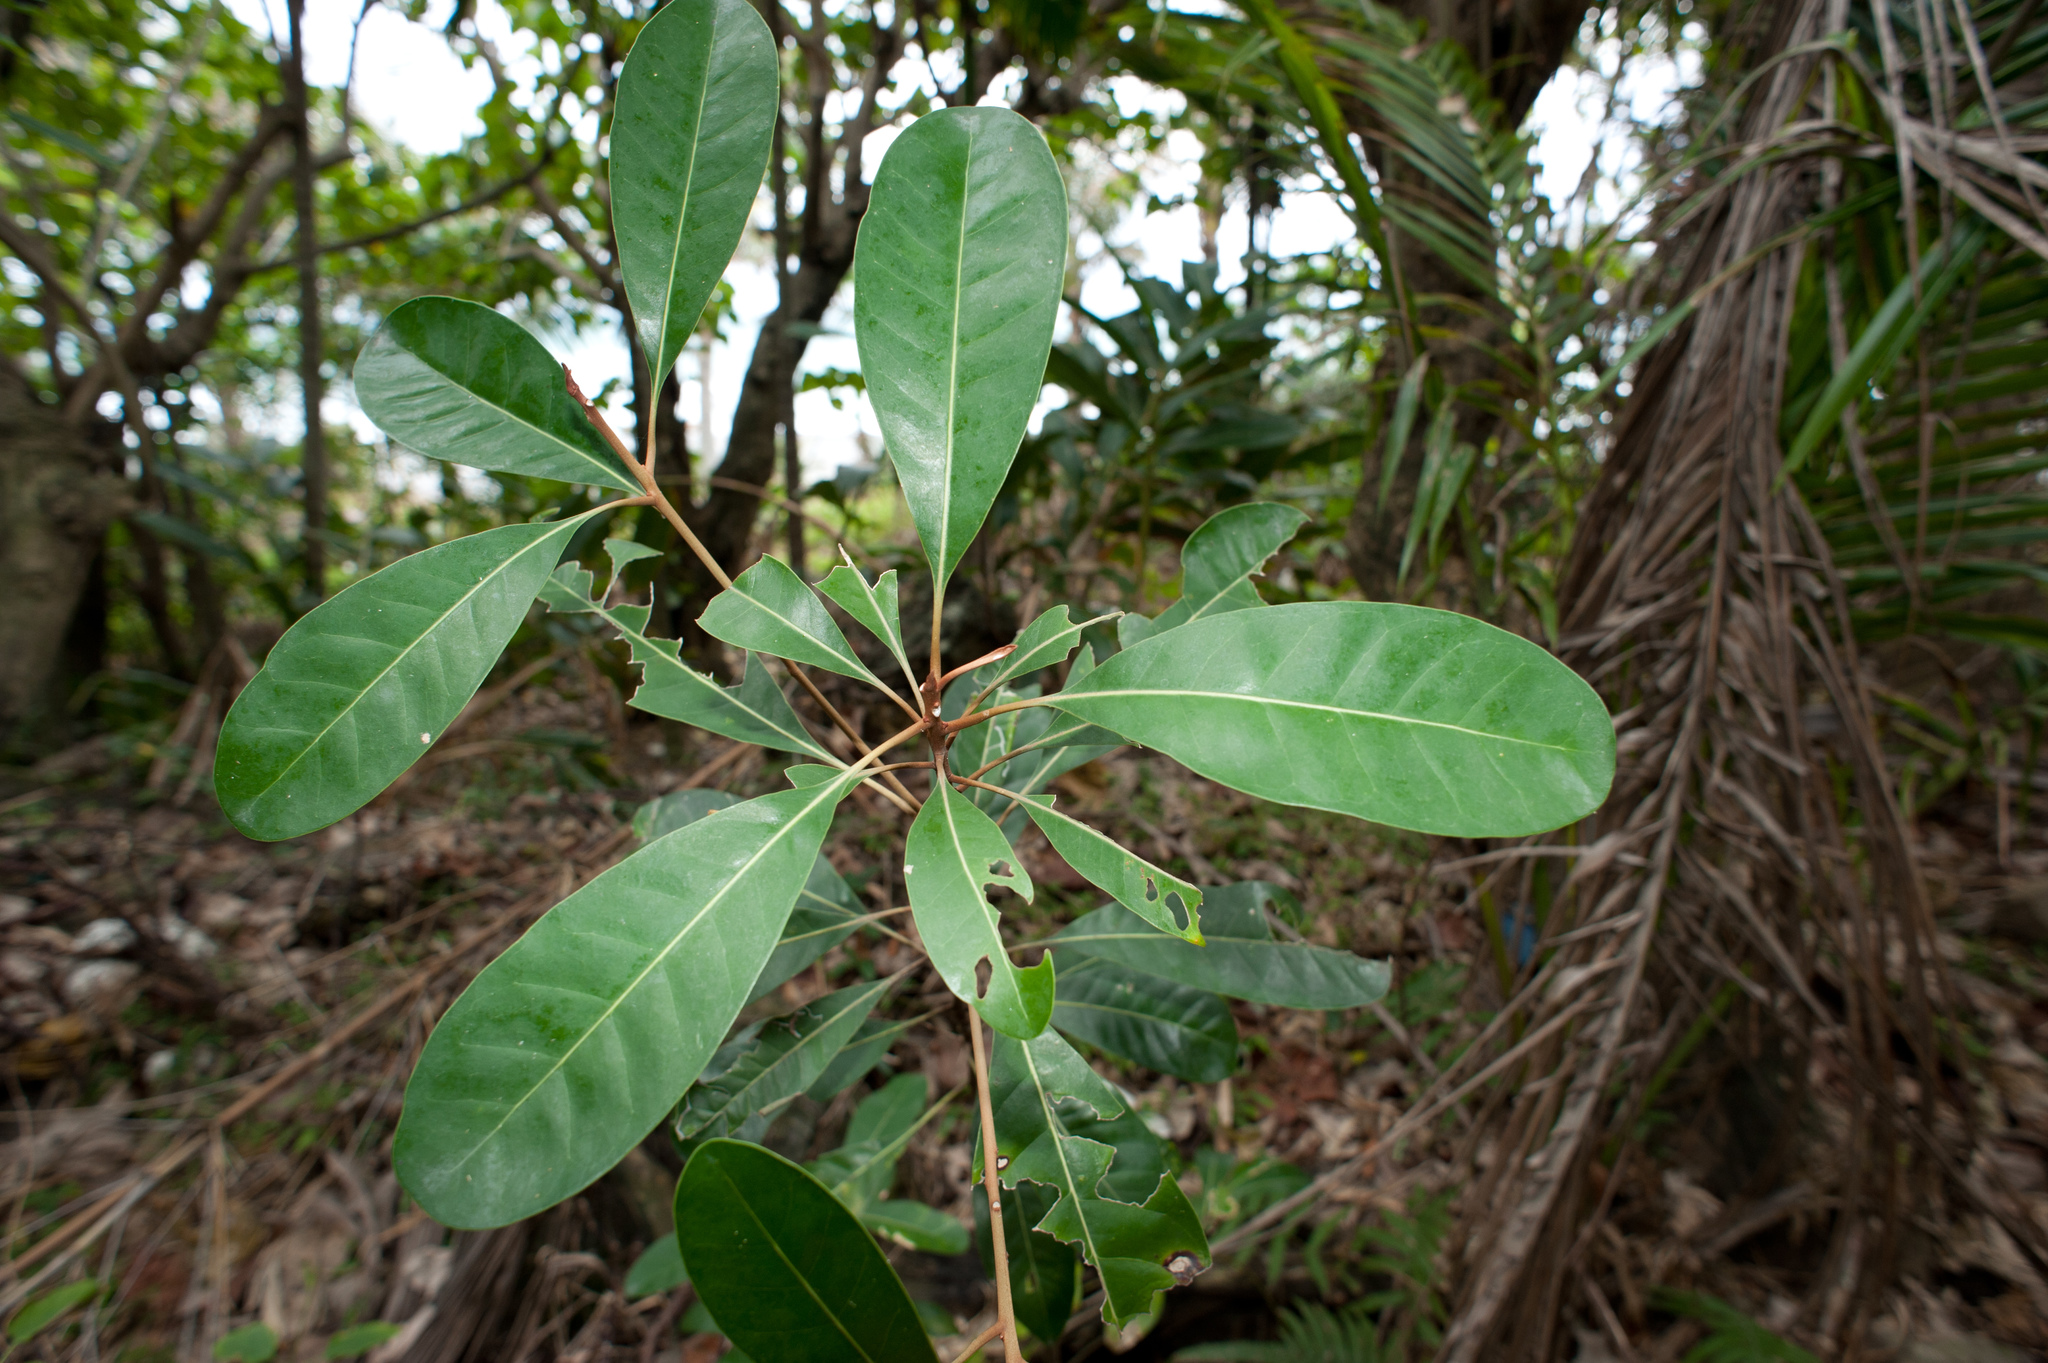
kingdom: Plantae
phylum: Tracheophyta
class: Magnoliopsida
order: Ericales
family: Sapotaceae
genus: Planchonella
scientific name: Planchonella obovata
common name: Black-ash
